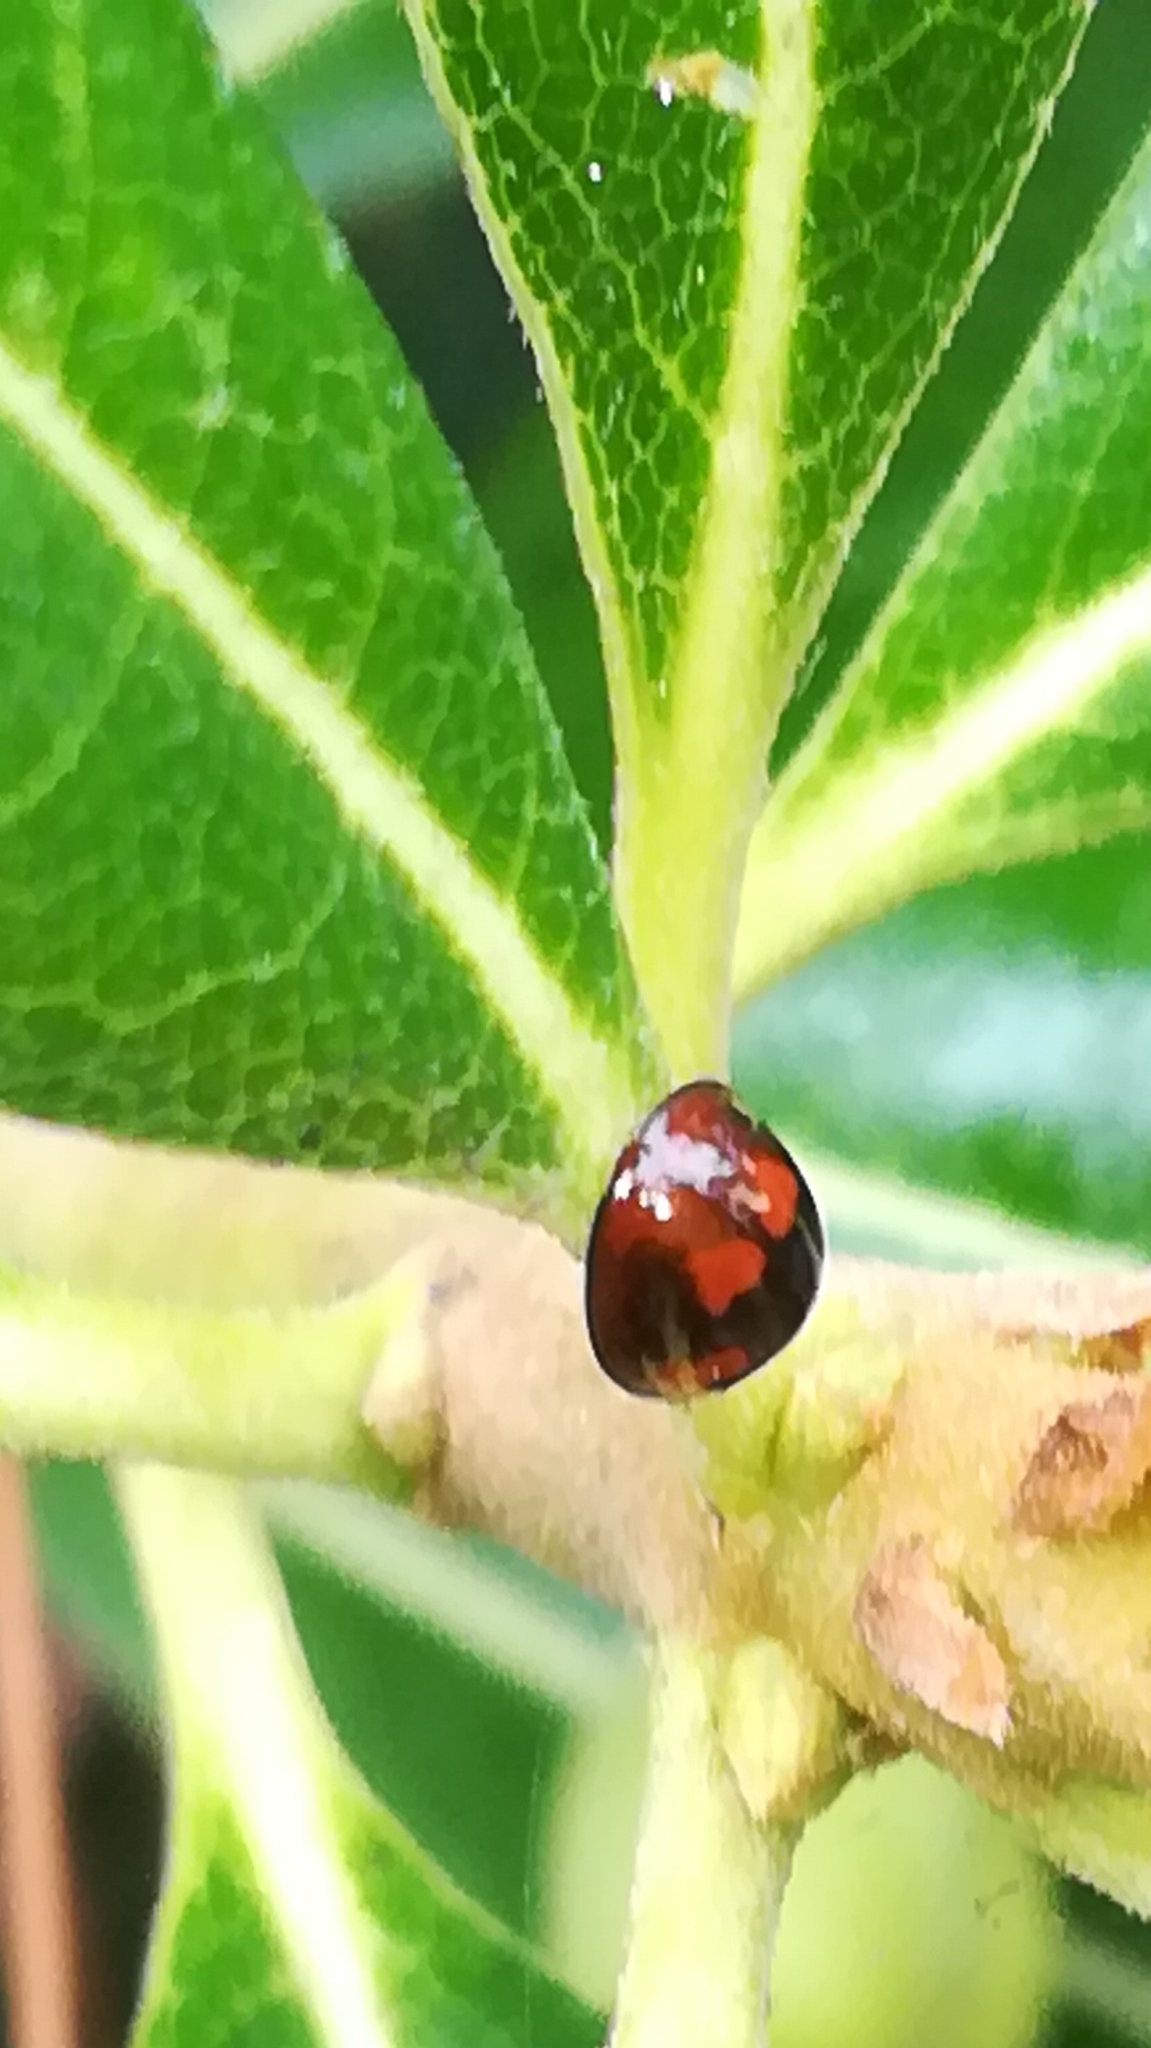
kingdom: Animalia
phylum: Arthropoda
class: Insecta
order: Coleoptera
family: Coccinellidae
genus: Brumus
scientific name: Brumus quadripustulatus
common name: Ladybird beetle
